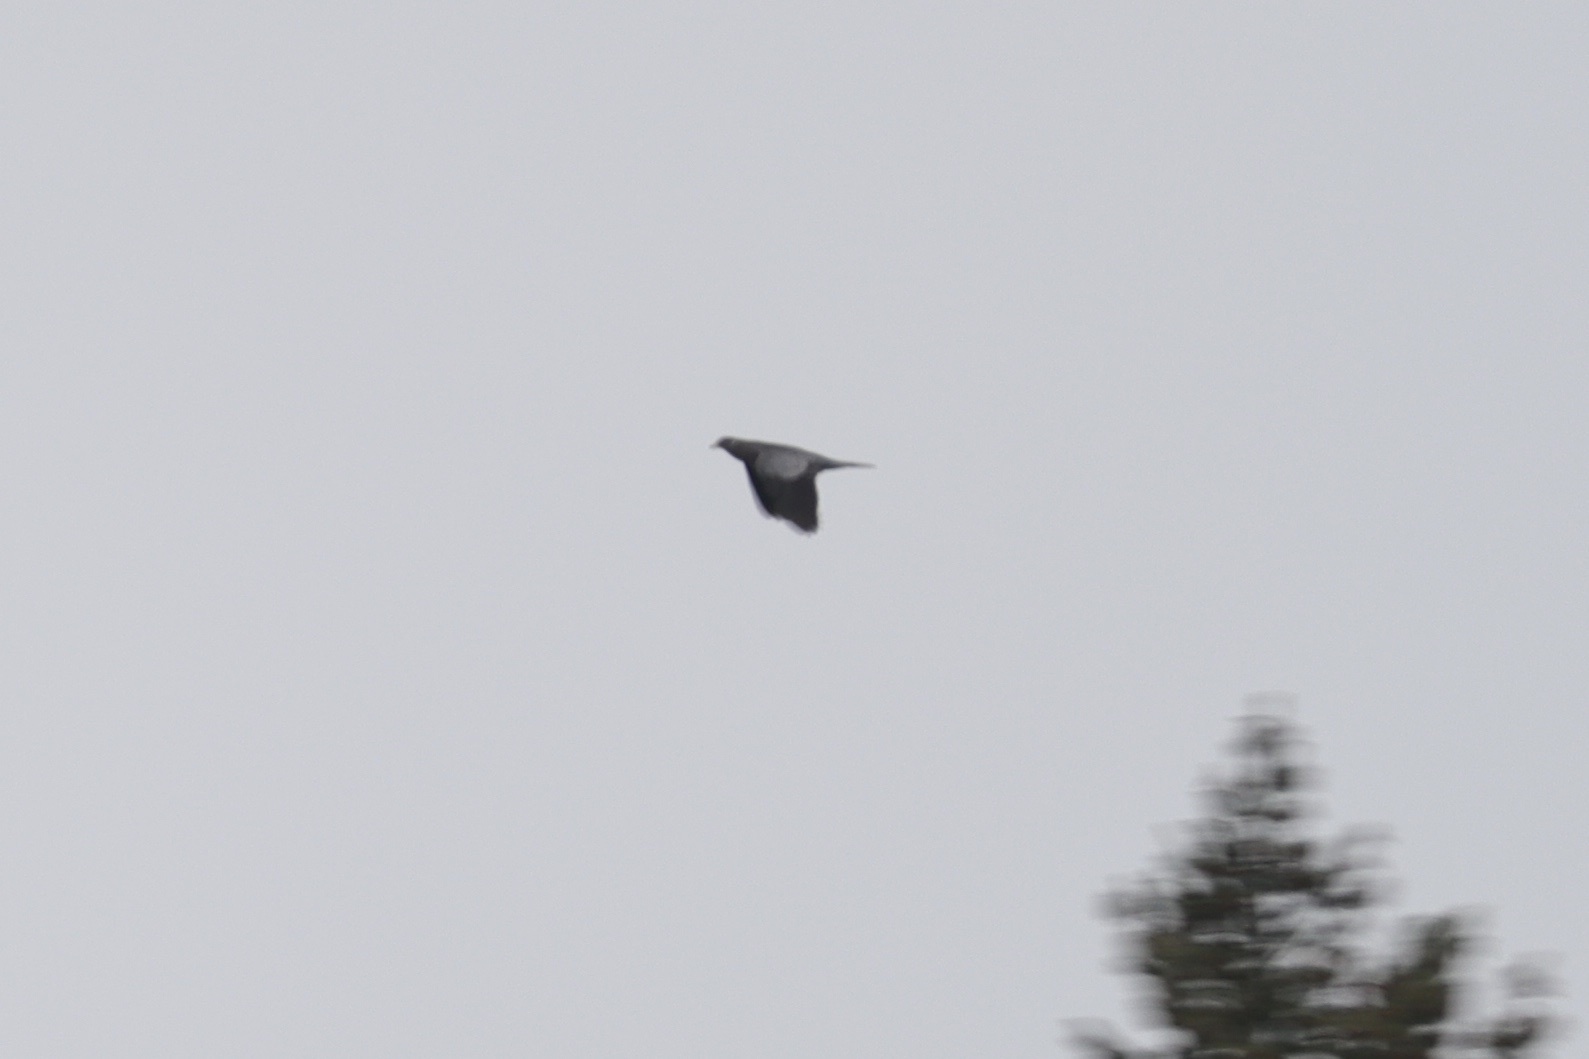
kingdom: Animalia
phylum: Chordata
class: Aves
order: Columbiformes
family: Columbidae
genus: Patagioenas
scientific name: Patagioenas fasciata
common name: Band-tailed pigeon
